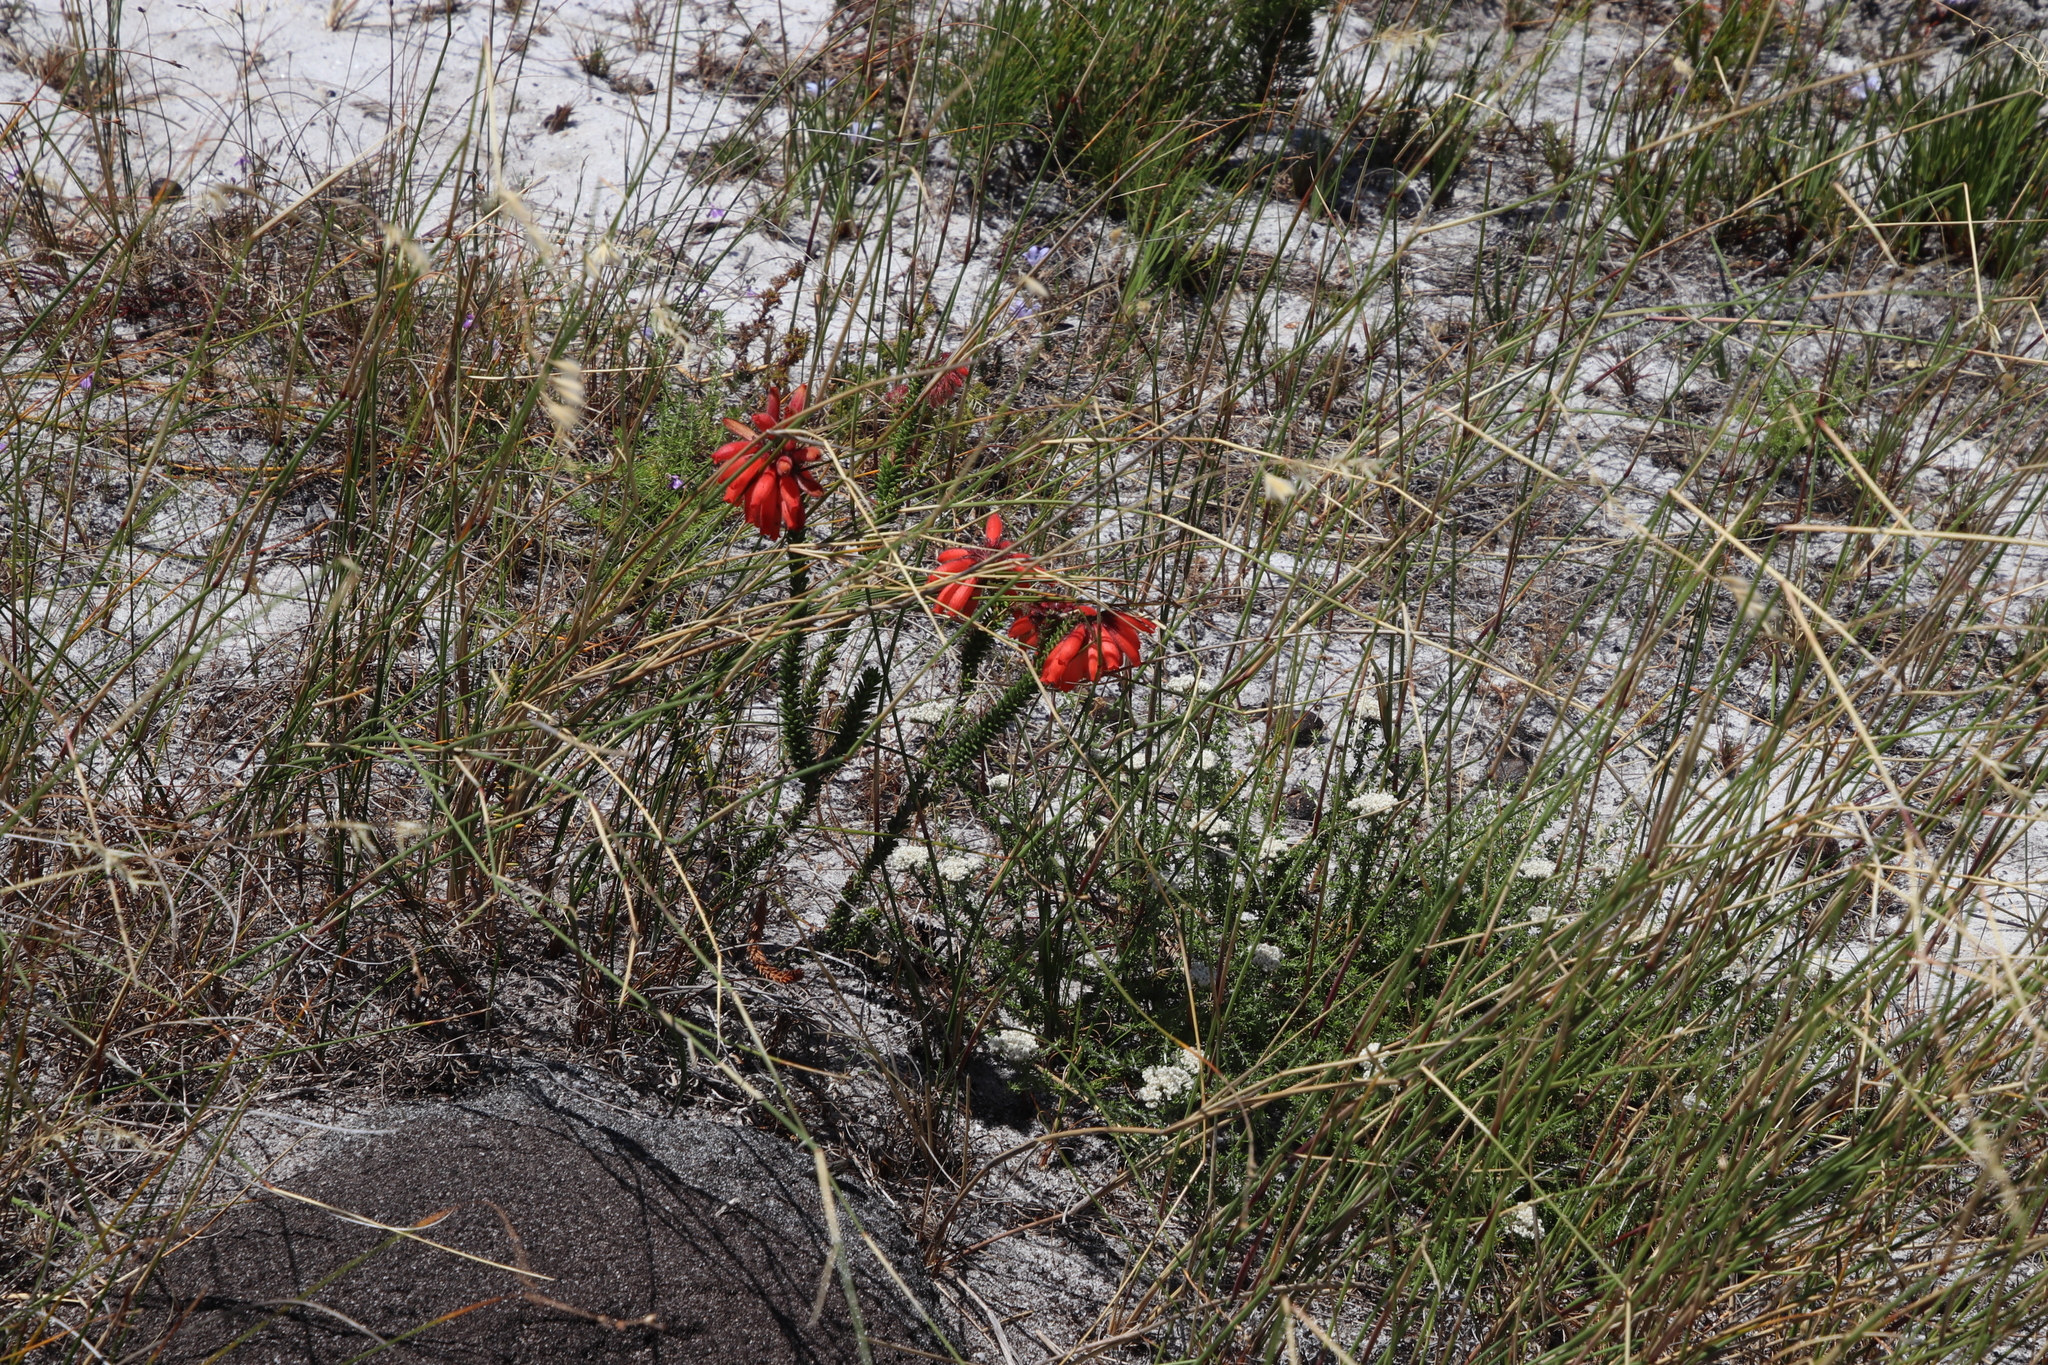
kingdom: Plantae
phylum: Tracheophyta
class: Magnoliopsida
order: Ericales
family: Ericaceae
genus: Erica
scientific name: Erica cerinthoides
